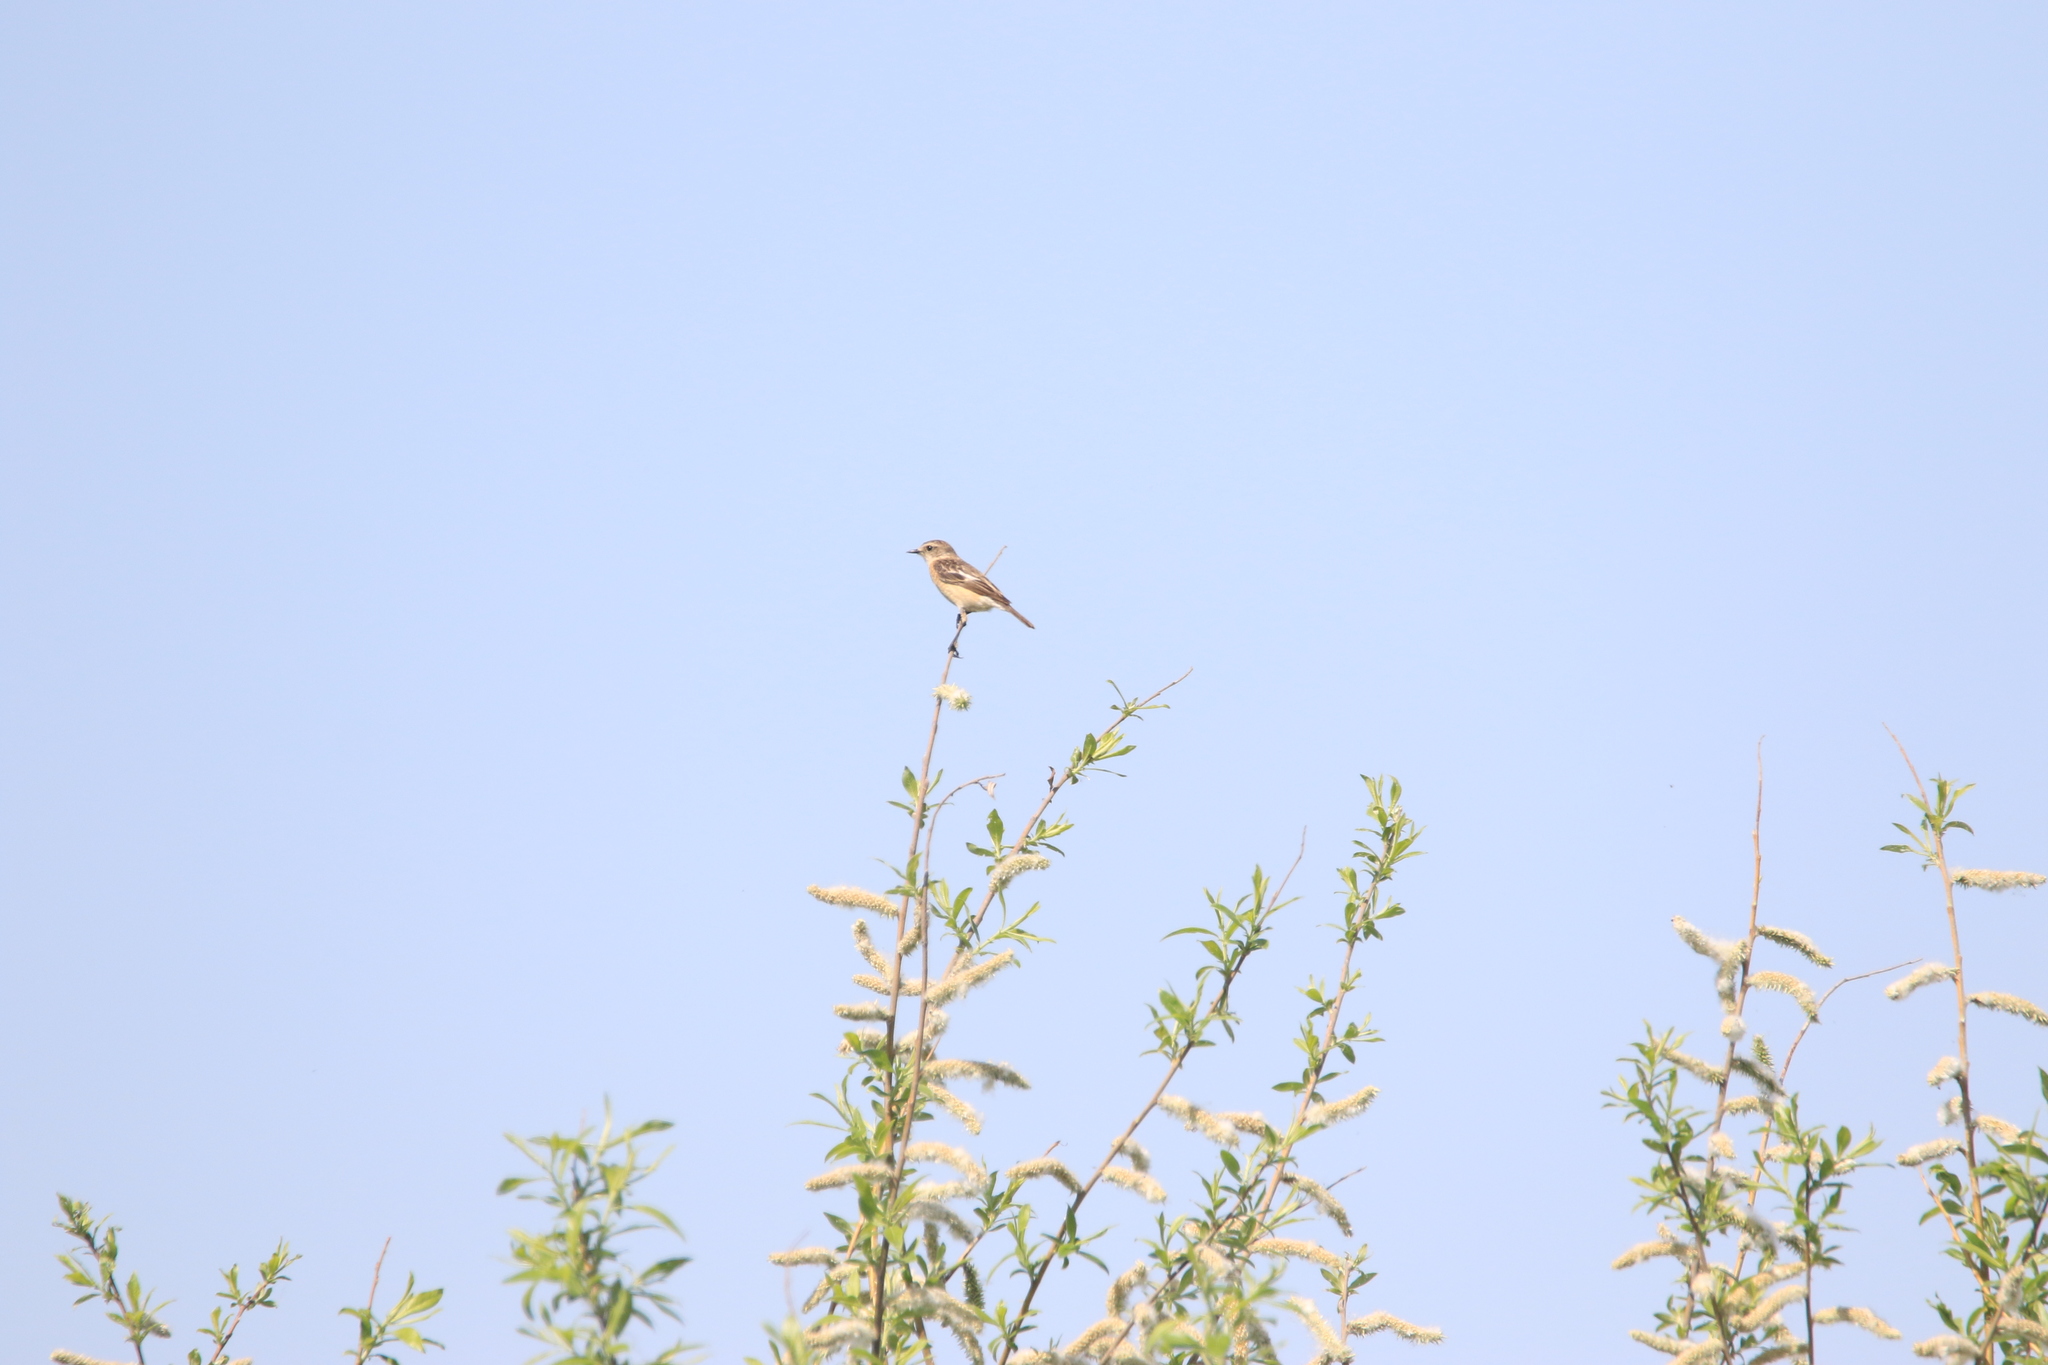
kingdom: Animalia
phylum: Chordata
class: Aves
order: Passeriformes
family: Muscicapidae
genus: Saxicola
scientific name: Saxicola maurus
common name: Siberian stonechat
